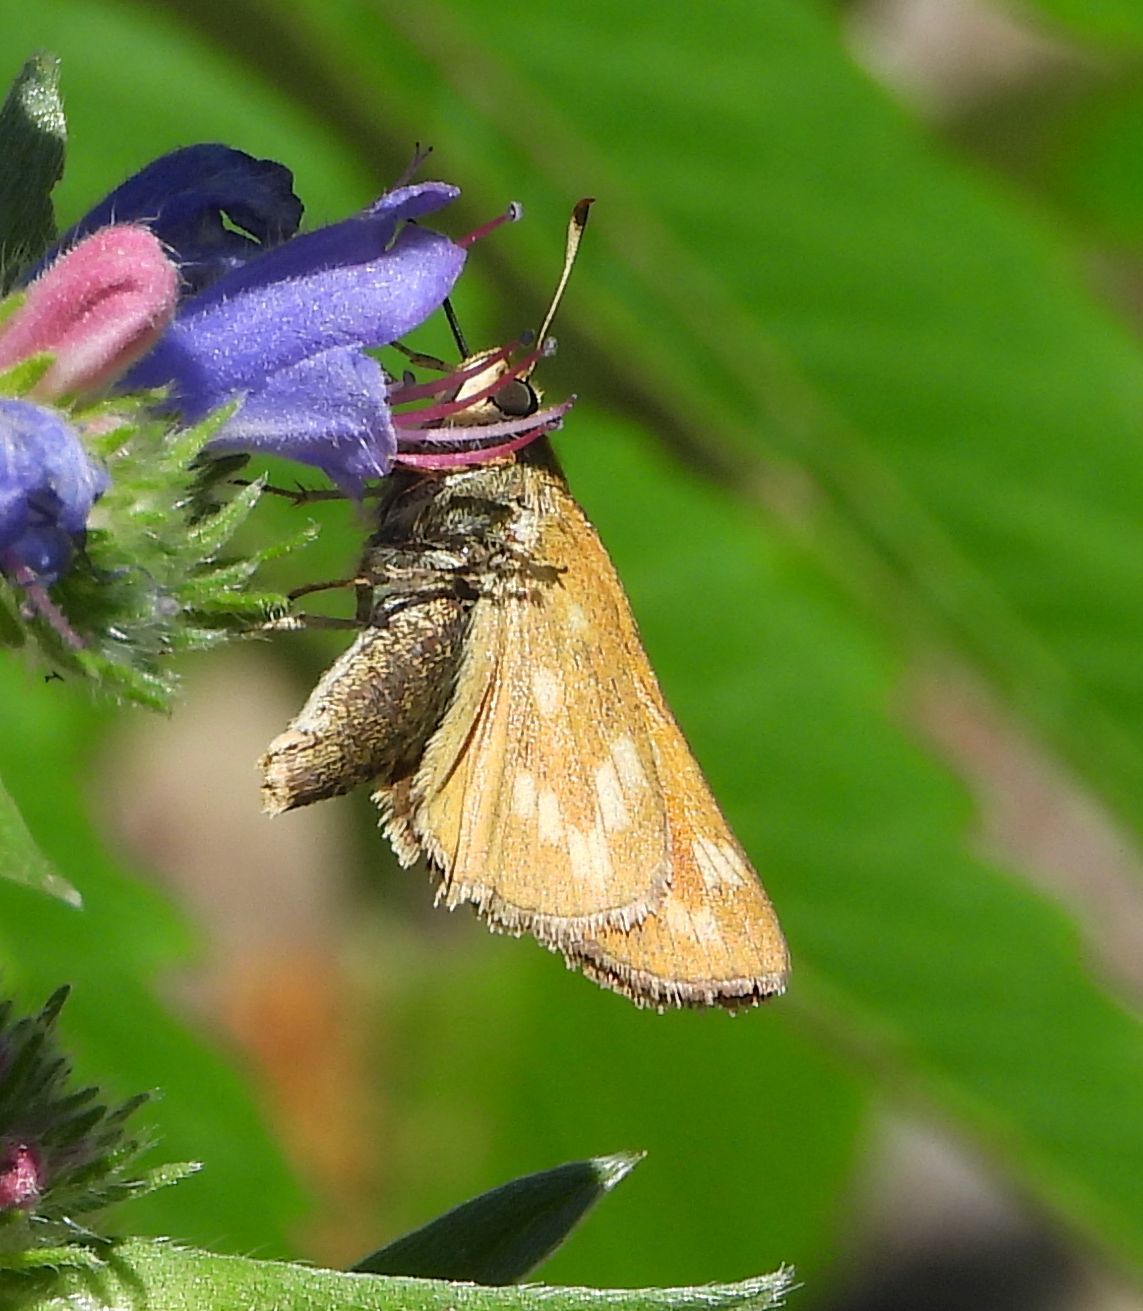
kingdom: Animalia
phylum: Arthropoda
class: Insecta
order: Lepidoptera
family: Hesperiidae
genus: Hesperia
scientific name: Hesperia sassacus
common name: Indian skipper
